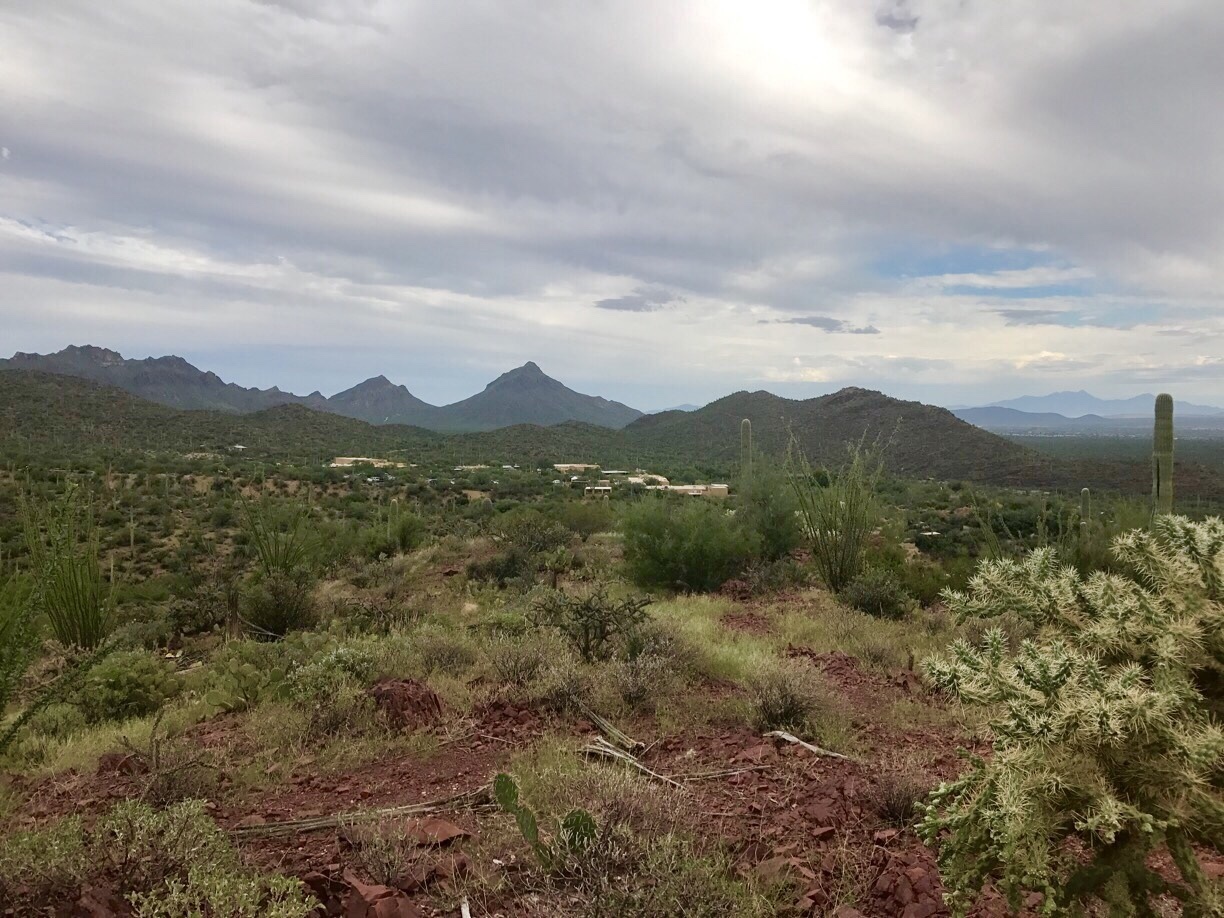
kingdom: Plantae
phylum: Tracheophyta
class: Magnoliopsida
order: Caryophyllales
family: Cactaceae
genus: Cylindropuntia
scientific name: Cylindropuntia fulgida
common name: Jumping cholla
